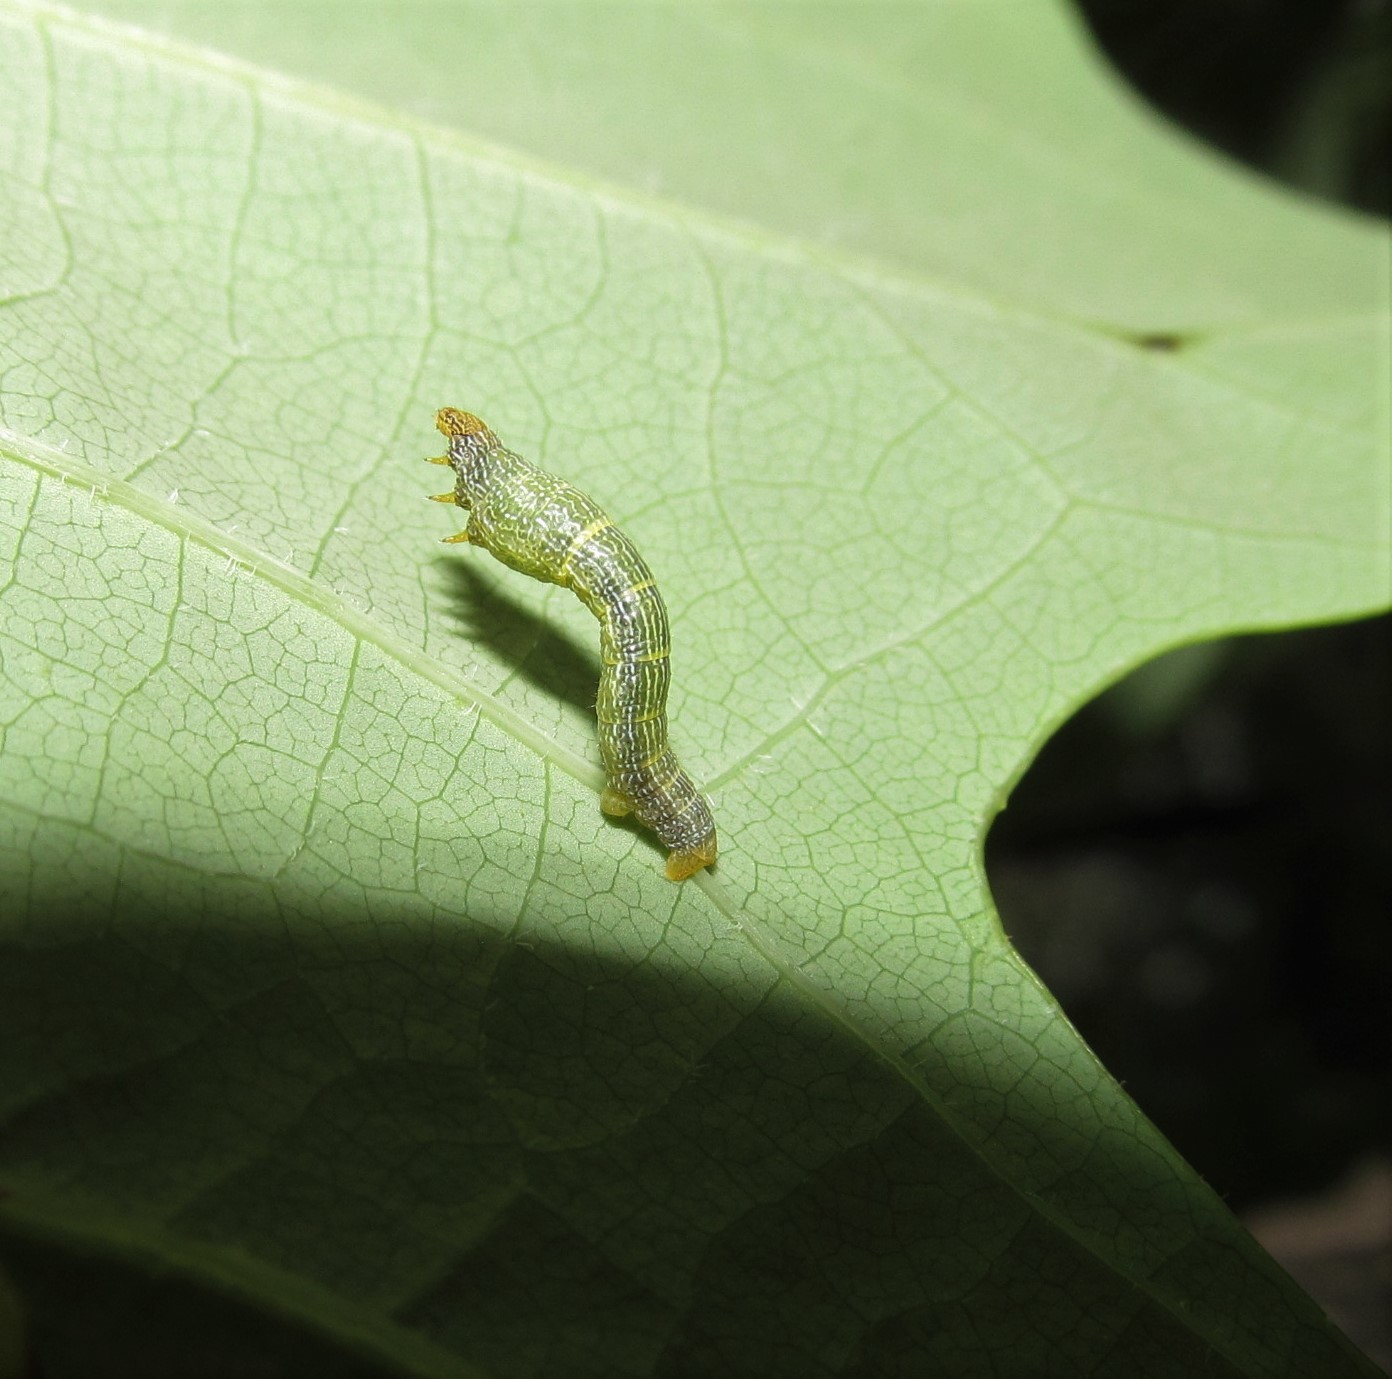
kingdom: Animalia
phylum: Arthropoda
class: Insecta
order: Lepidoptera
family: Geometridae
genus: Epimecis
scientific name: Epimecis hortaria
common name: Tulip-tree beauty
